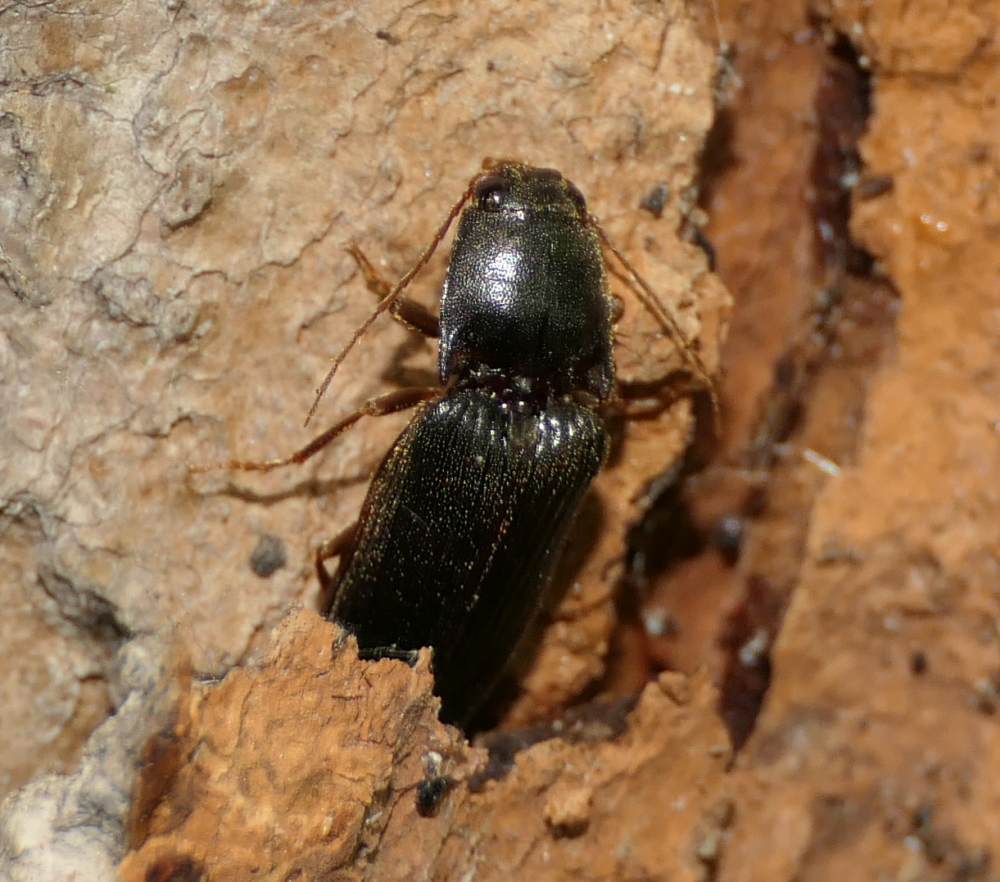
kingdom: Animalia
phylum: Arthropoda
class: Insecta
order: Coleoptera
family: Elateridae
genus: Hemicrepidius
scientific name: Hemicrepidius
